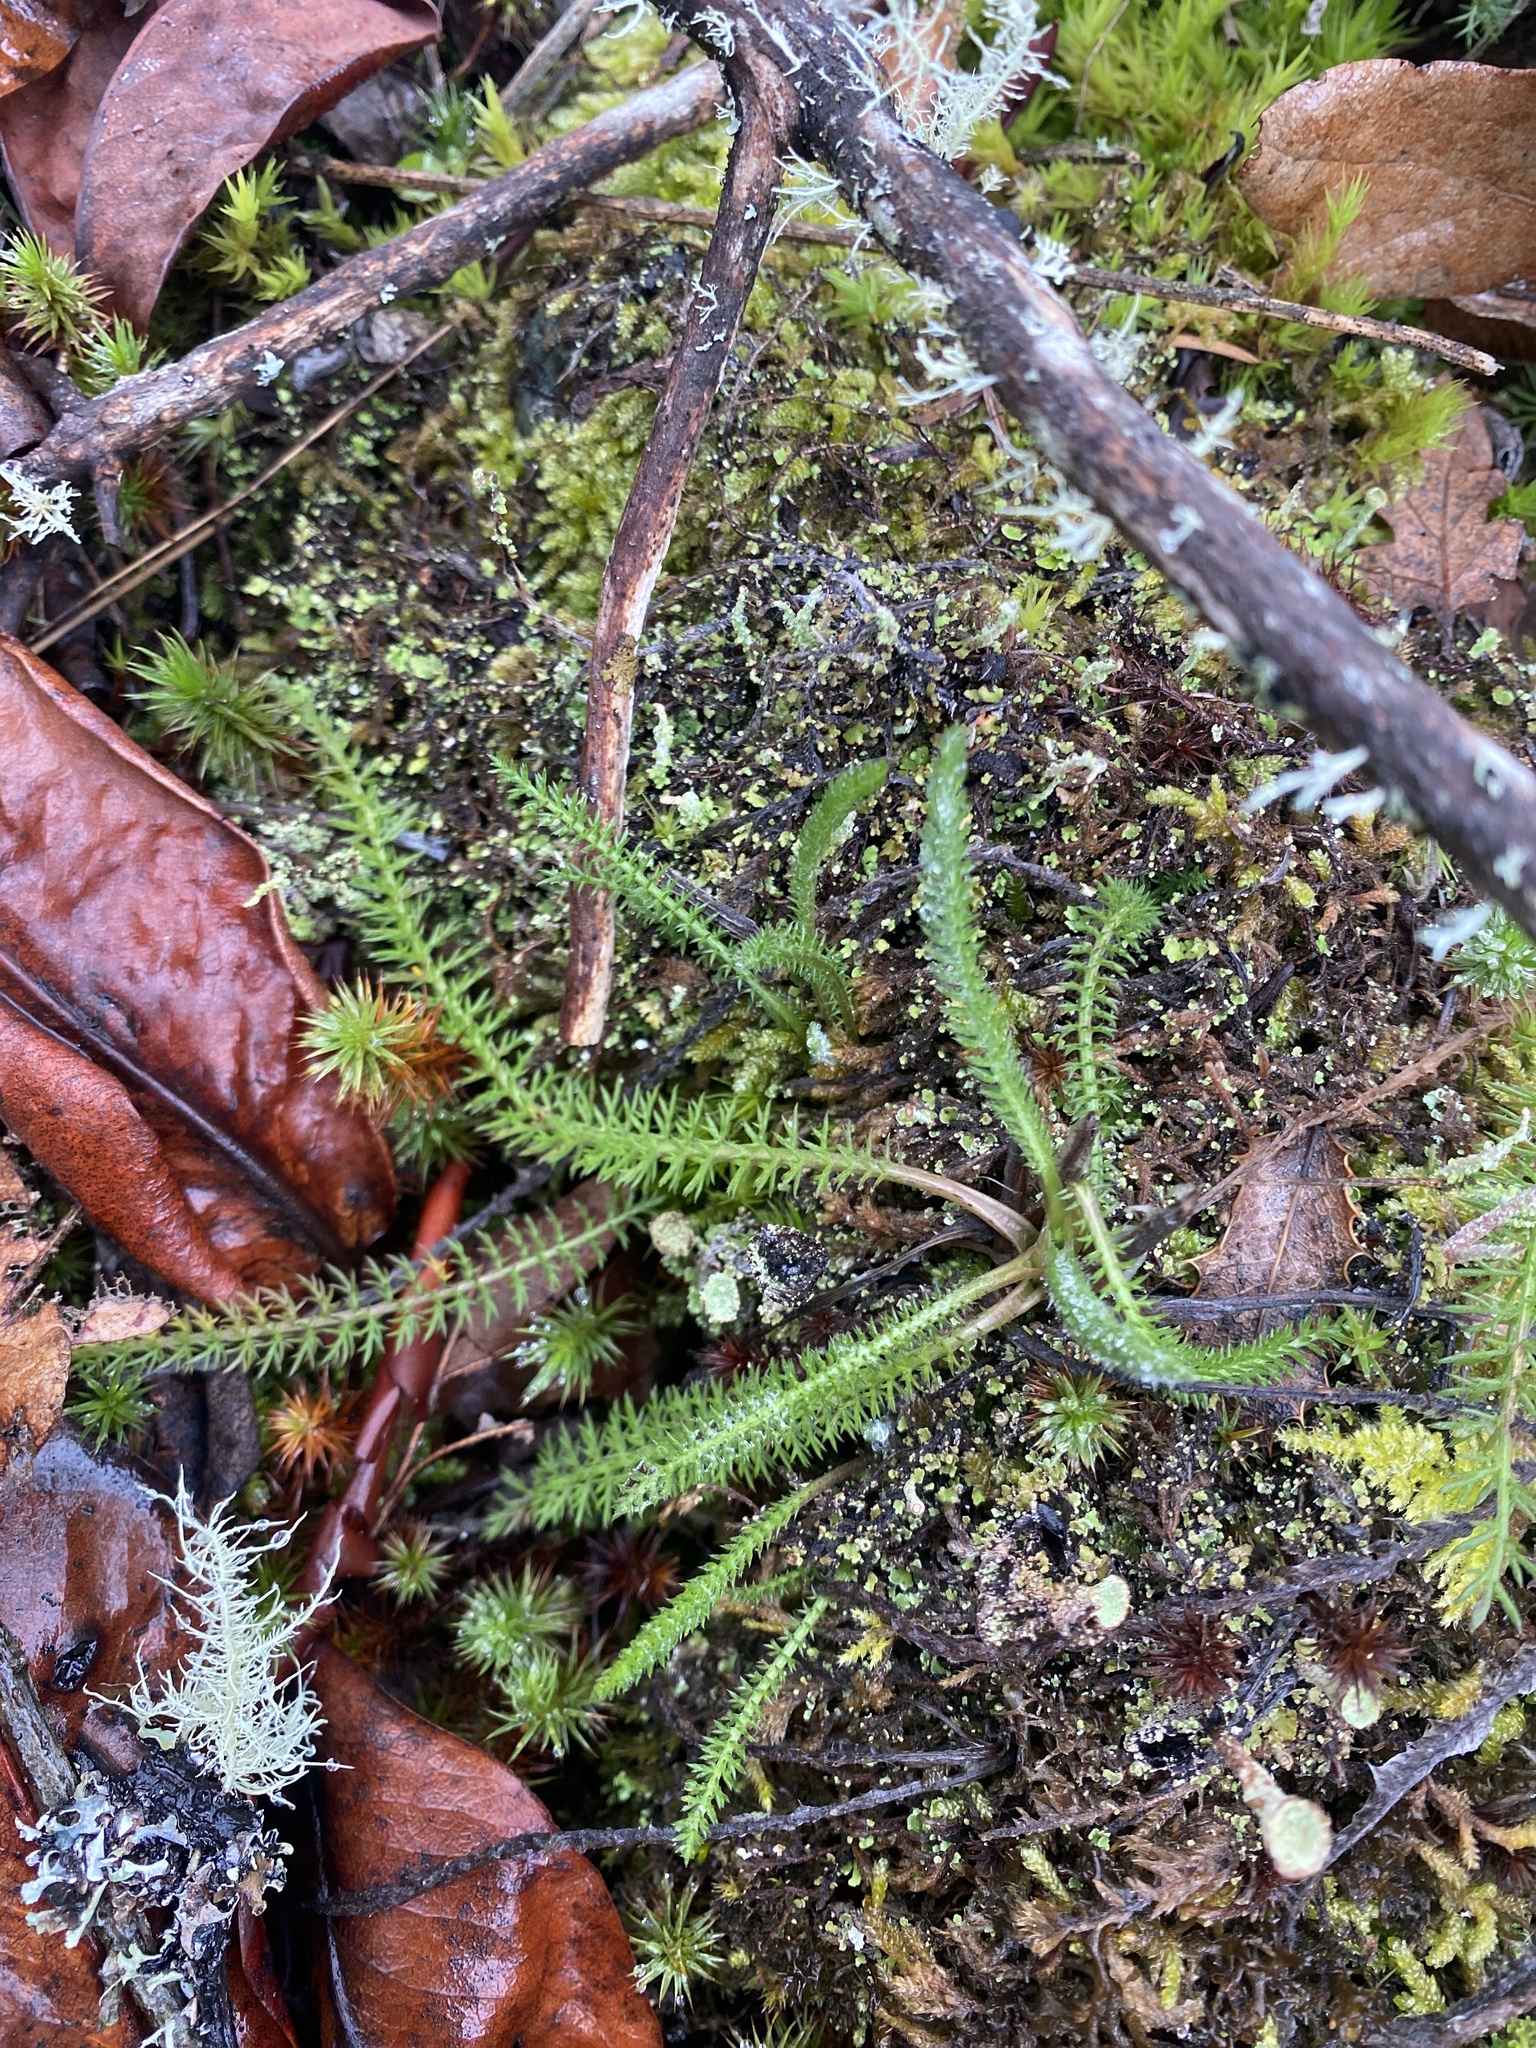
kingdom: Plantae
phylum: Tracheophyta
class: Magnoliopsida
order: Asterales
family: Asteraceae
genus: Achillea
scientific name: Achillea millefolium
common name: Yarrow
